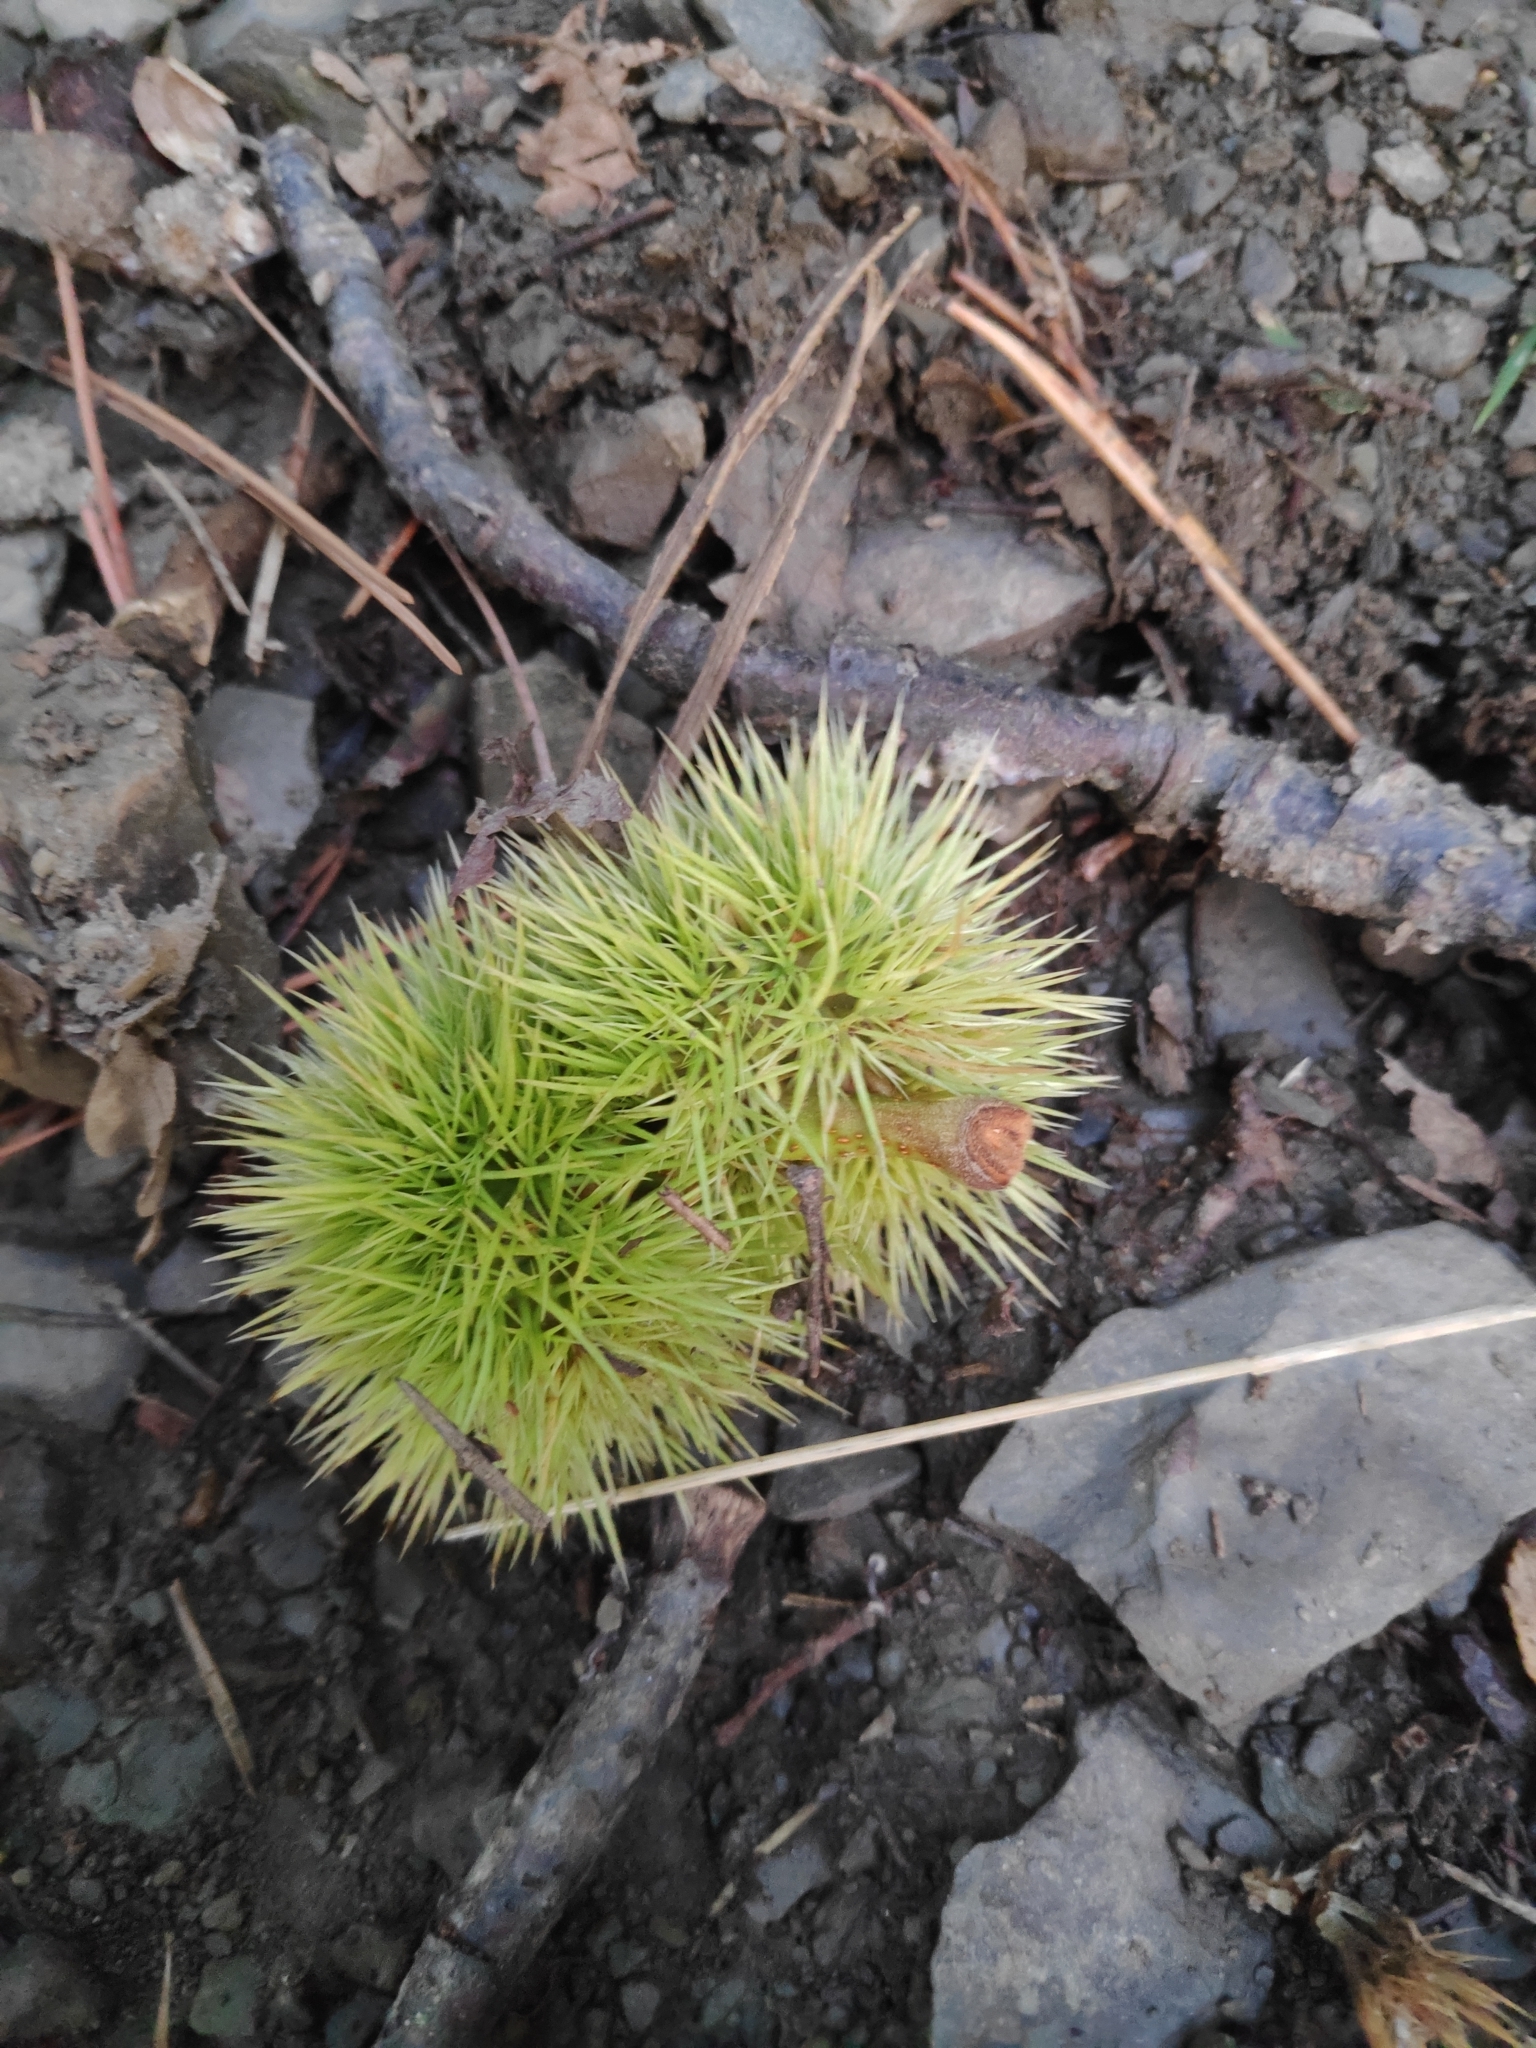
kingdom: Plantae
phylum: Tracheophyta
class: Magnoliopsida
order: Fagales
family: Fagaceae
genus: Castanea
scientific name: Castanea sativa
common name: Sweet chestnut
